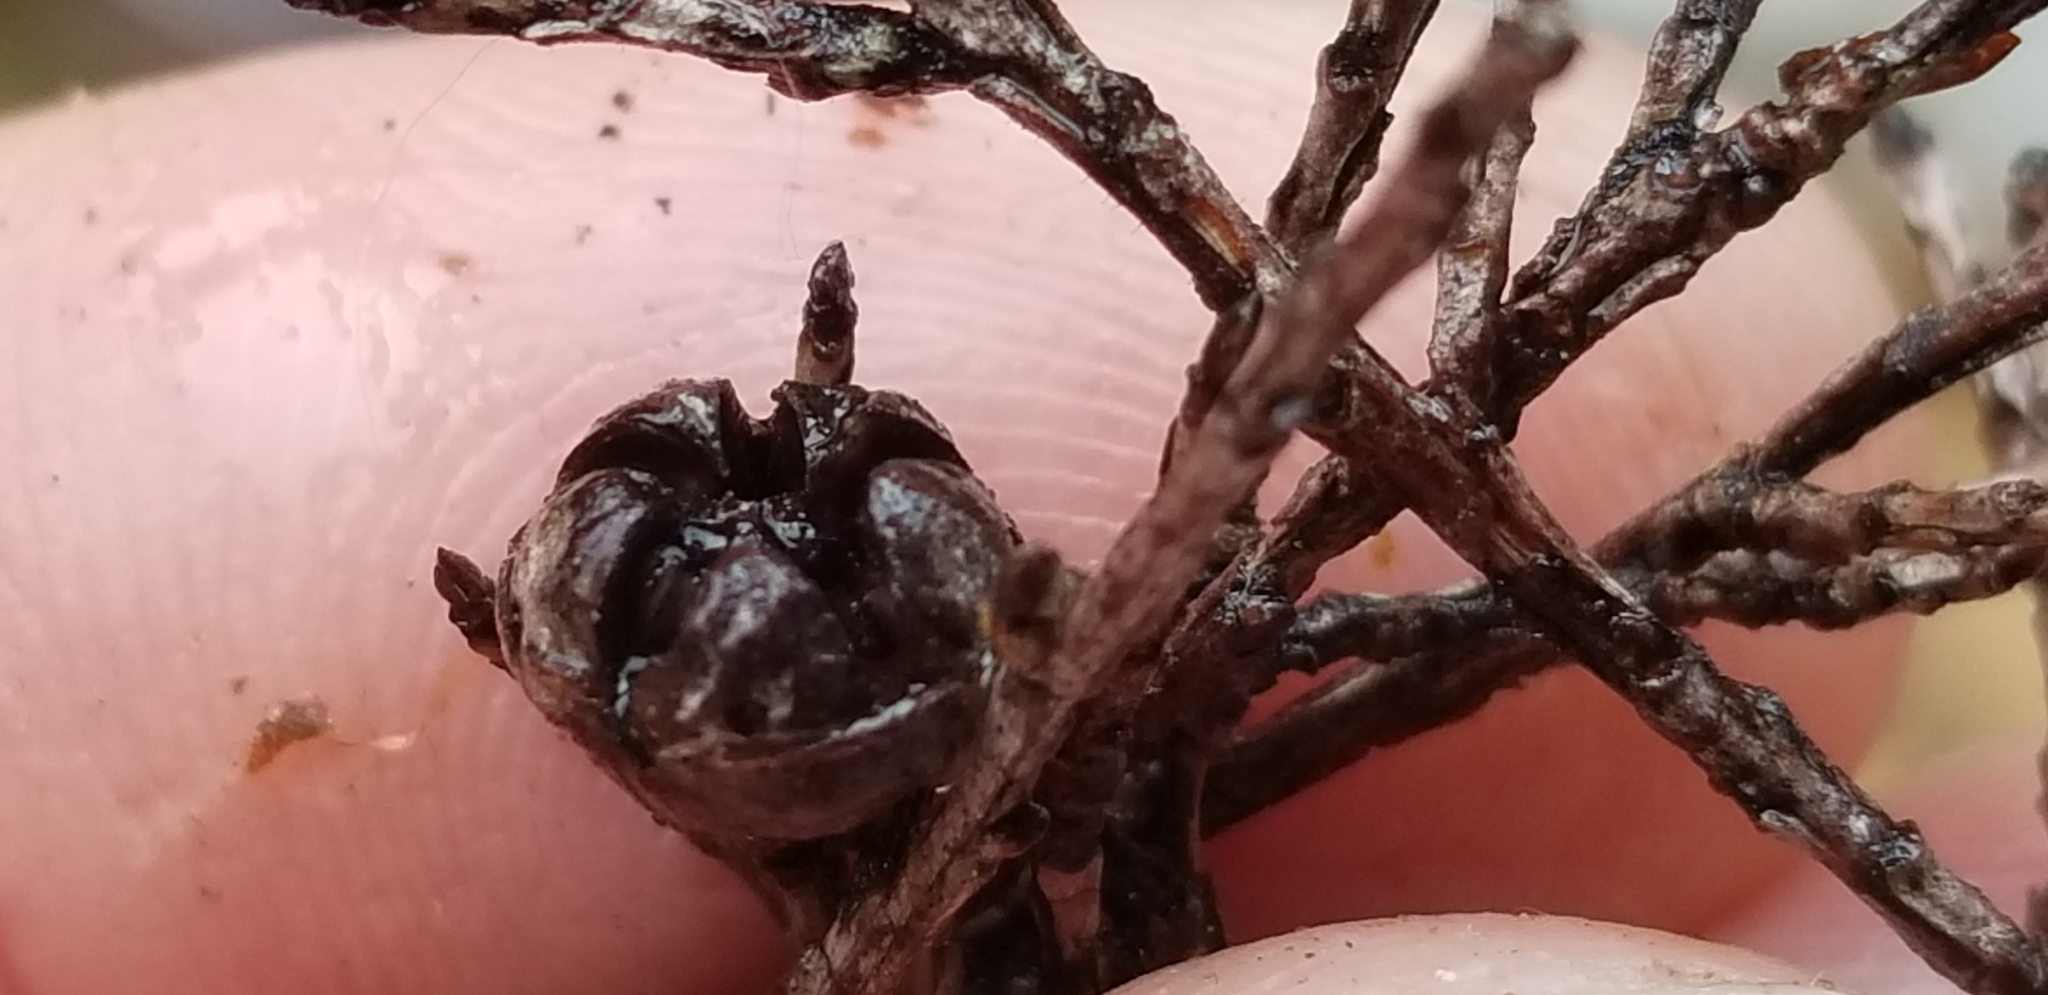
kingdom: Plantae
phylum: Tracheophyta
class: Magnoliopsida
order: Myrtales
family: Myrtaceae
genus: Leptospermum
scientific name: Leptospermum scoparium
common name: Broom tea-tree
